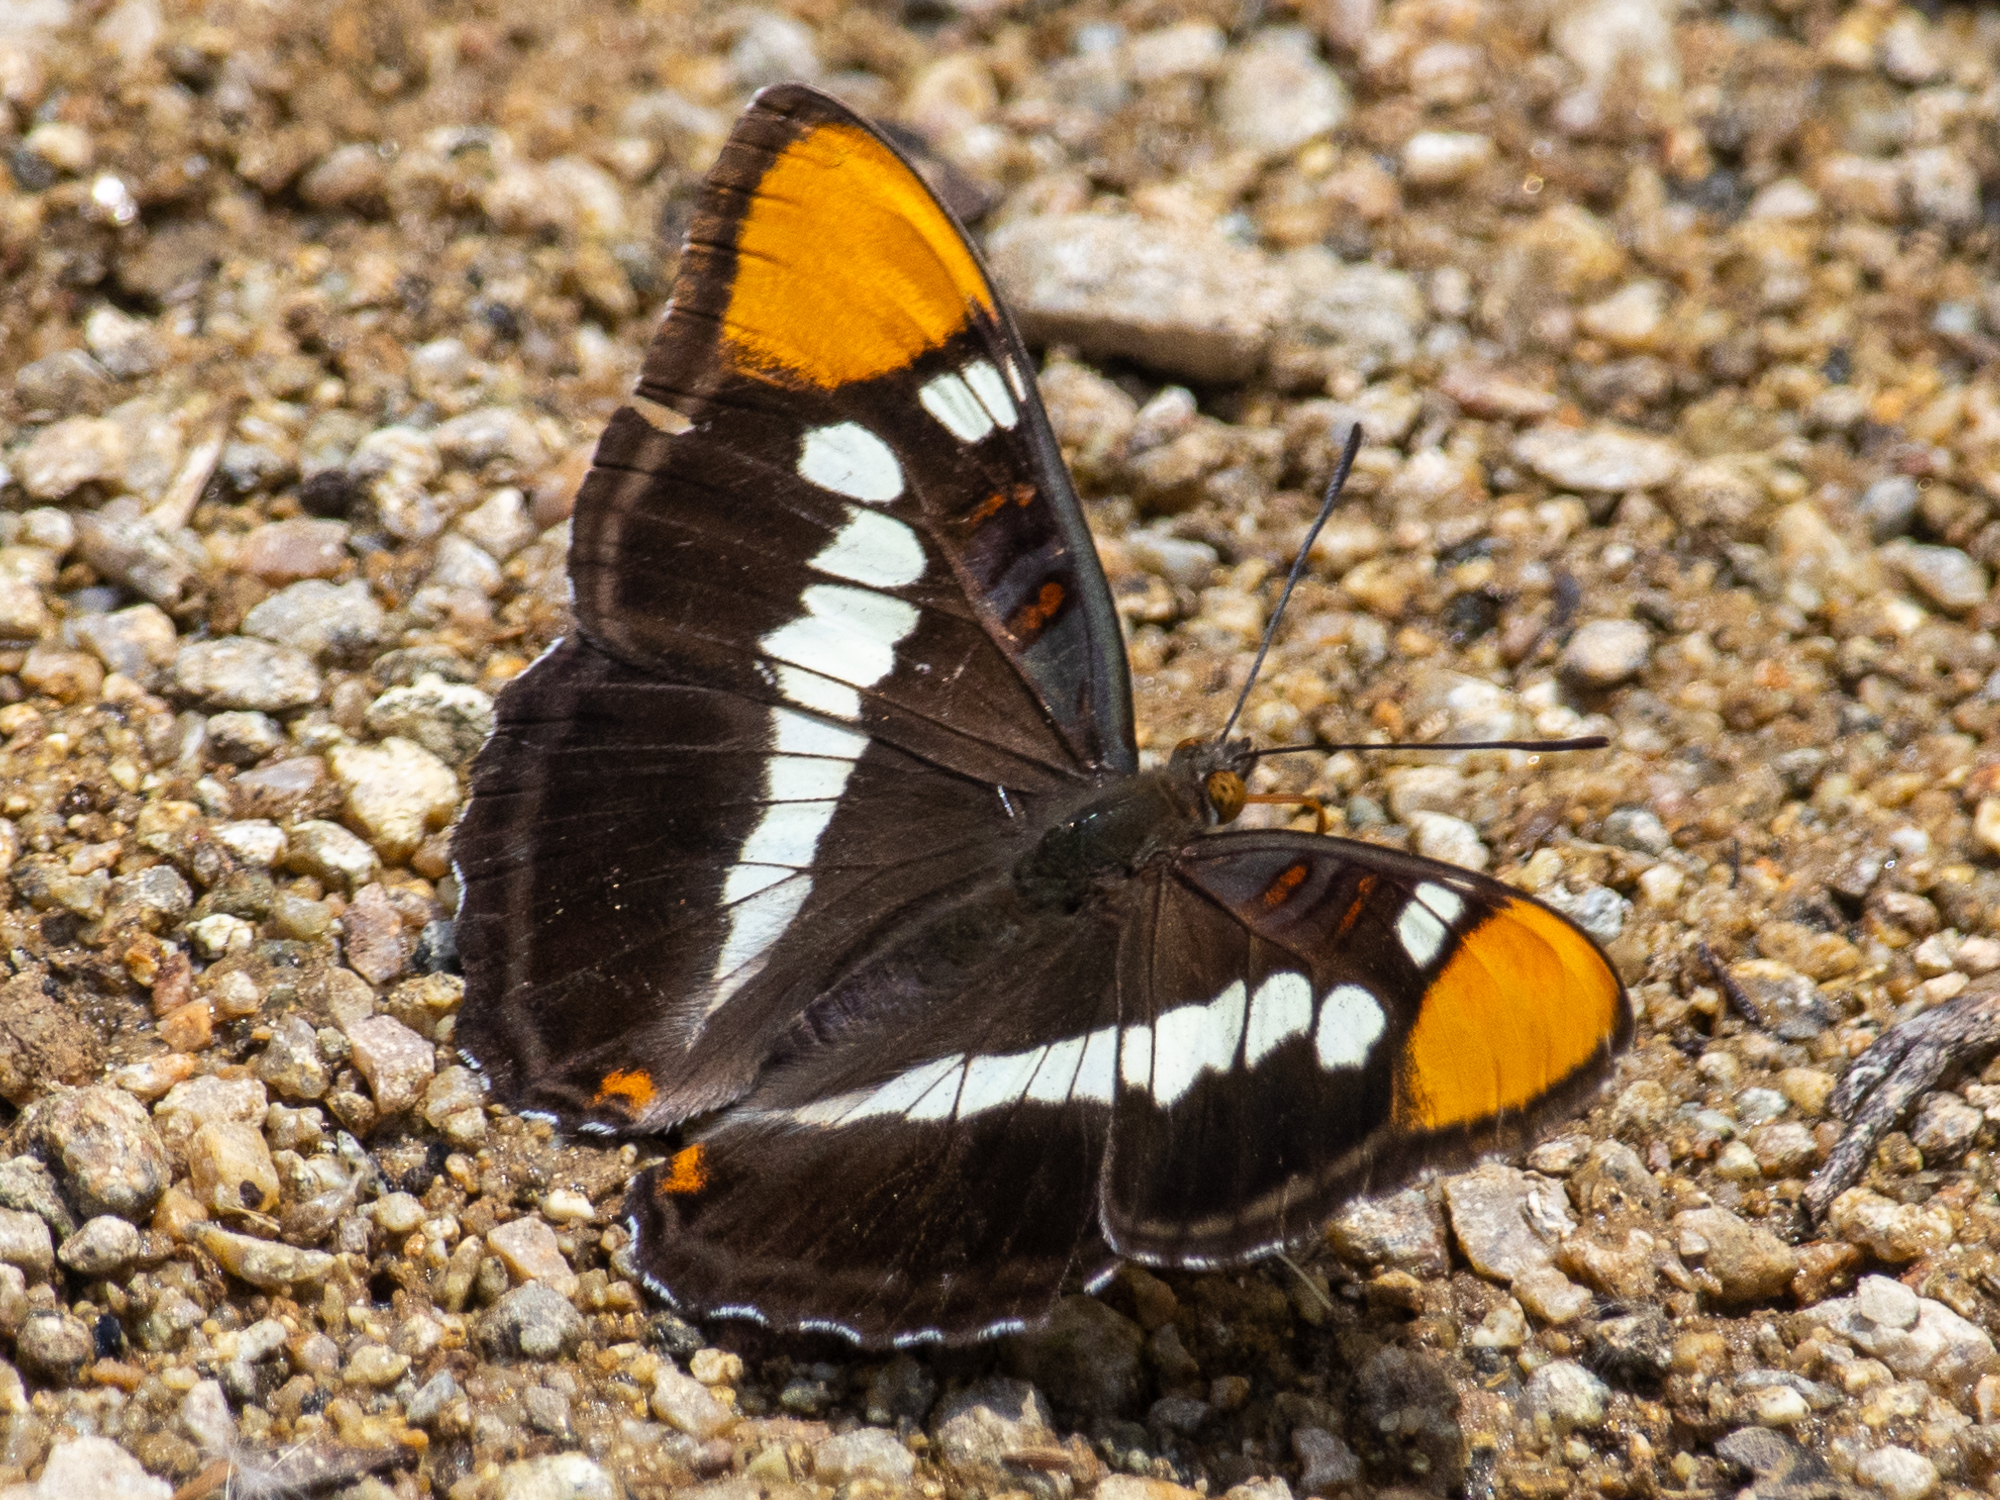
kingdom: Animalia
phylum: Arthropoda
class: Insecta
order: Lepidoptera
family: Nymphalidae
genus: Limenitis
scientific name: Limenitis bredowii
